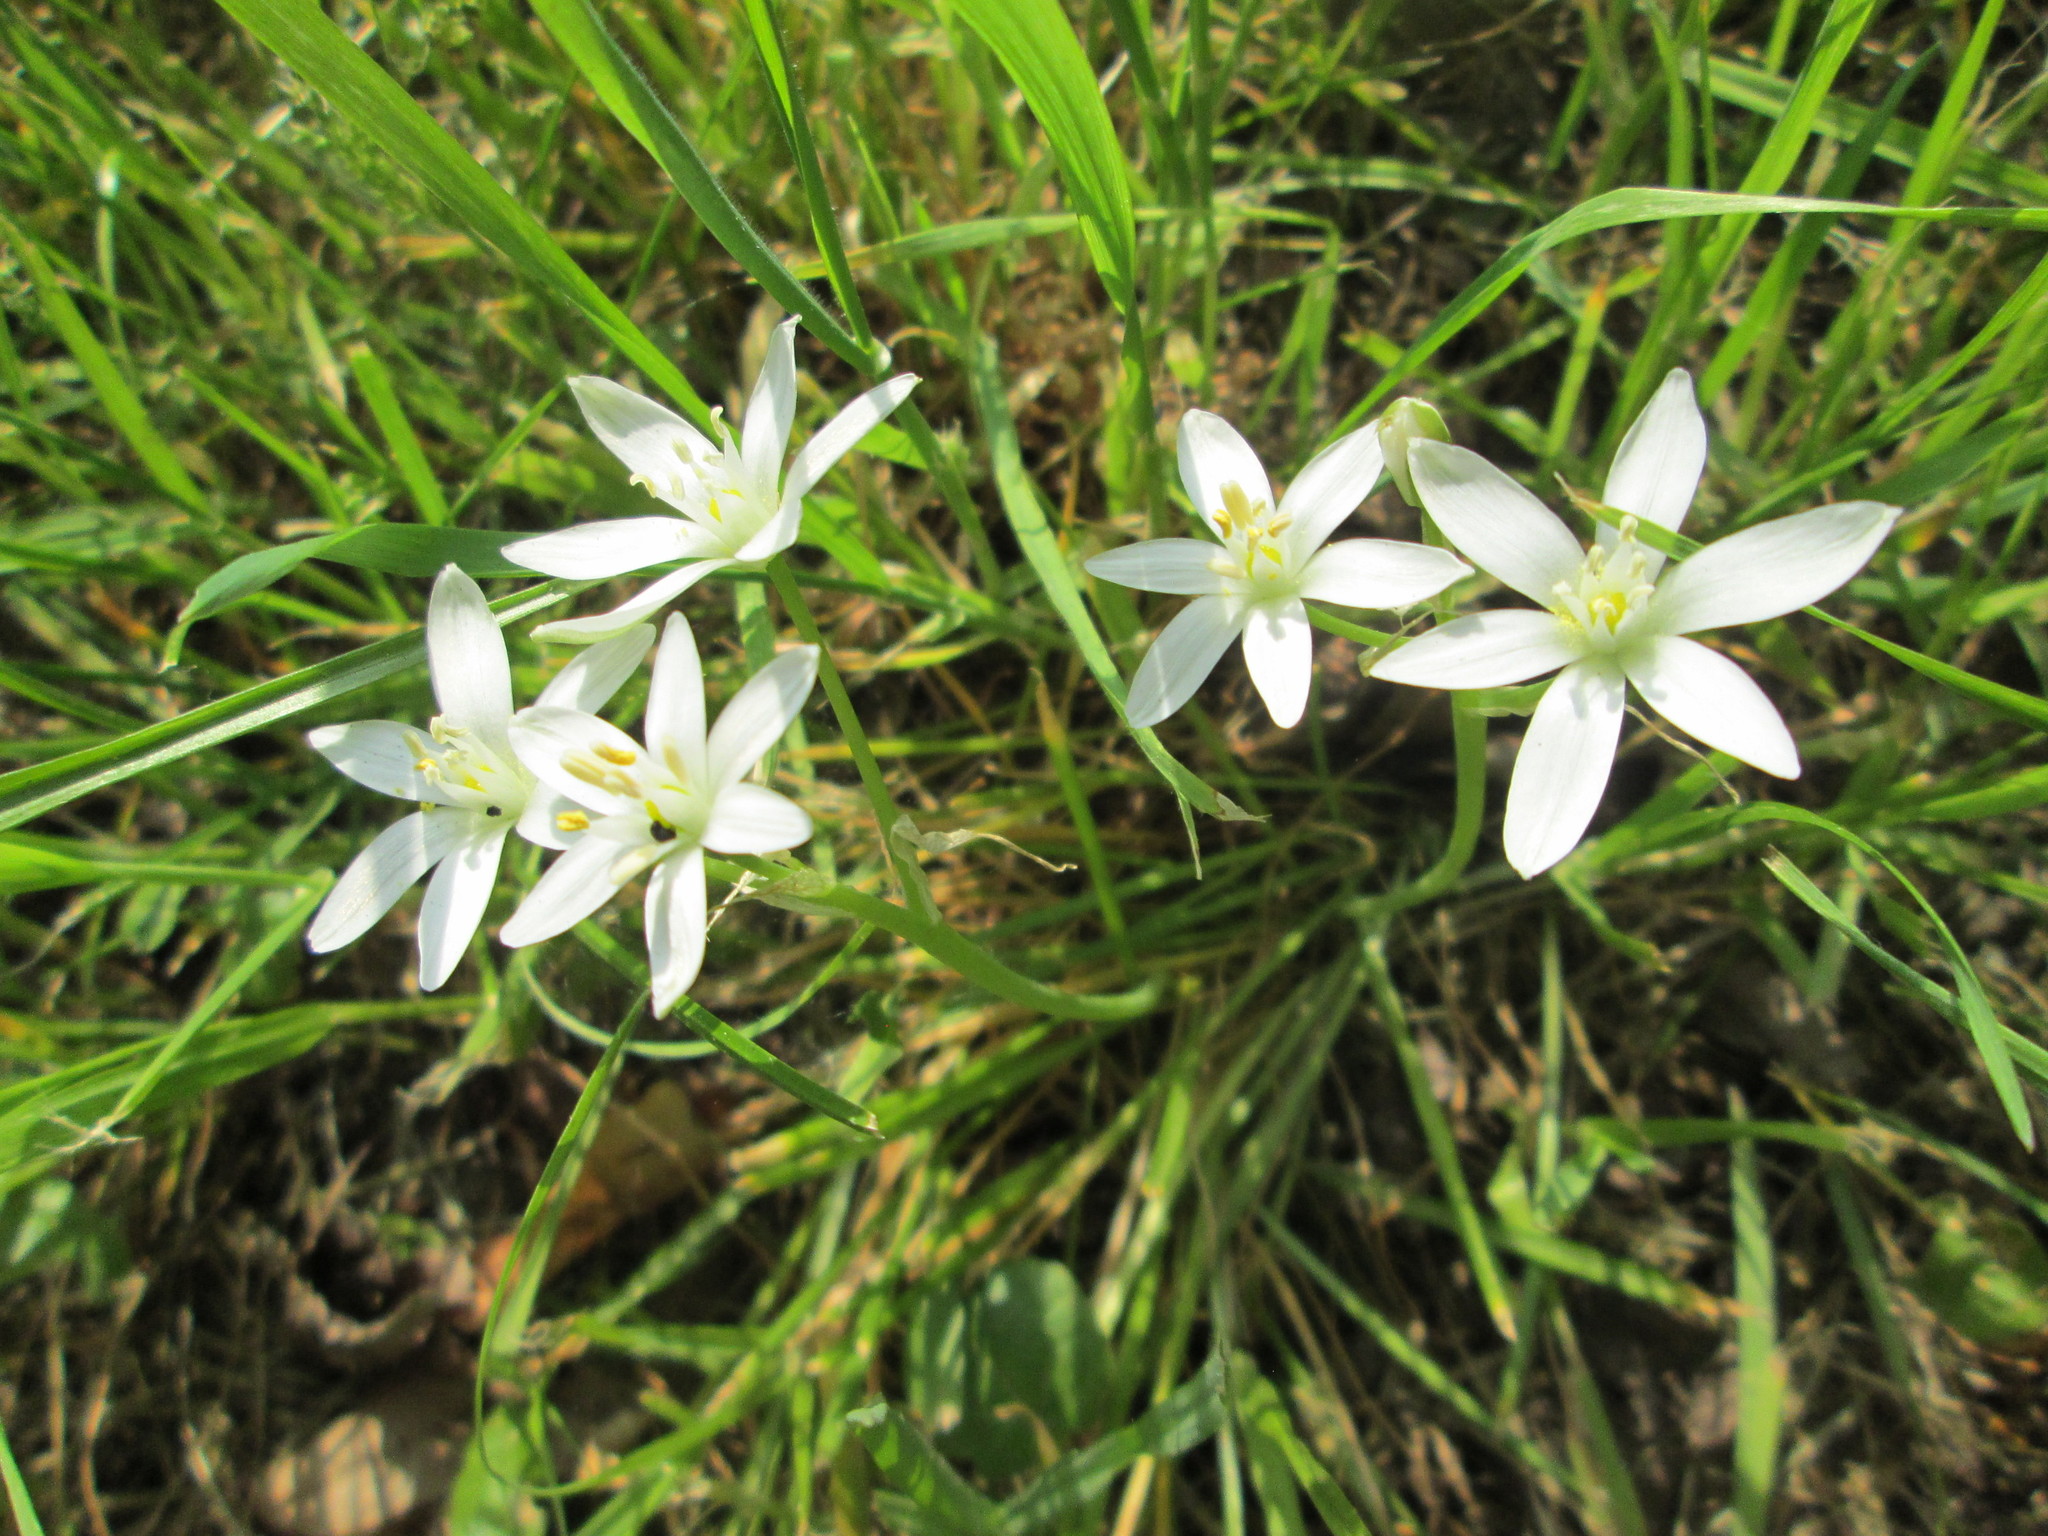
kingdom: Plantae
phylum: Tracheophyta
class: Liliopsida
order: Asparagales
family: Asparagaceae
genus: Ornithogalum
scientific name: Ornithogalum umbellatum
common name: Garden star-of-bethlehem
